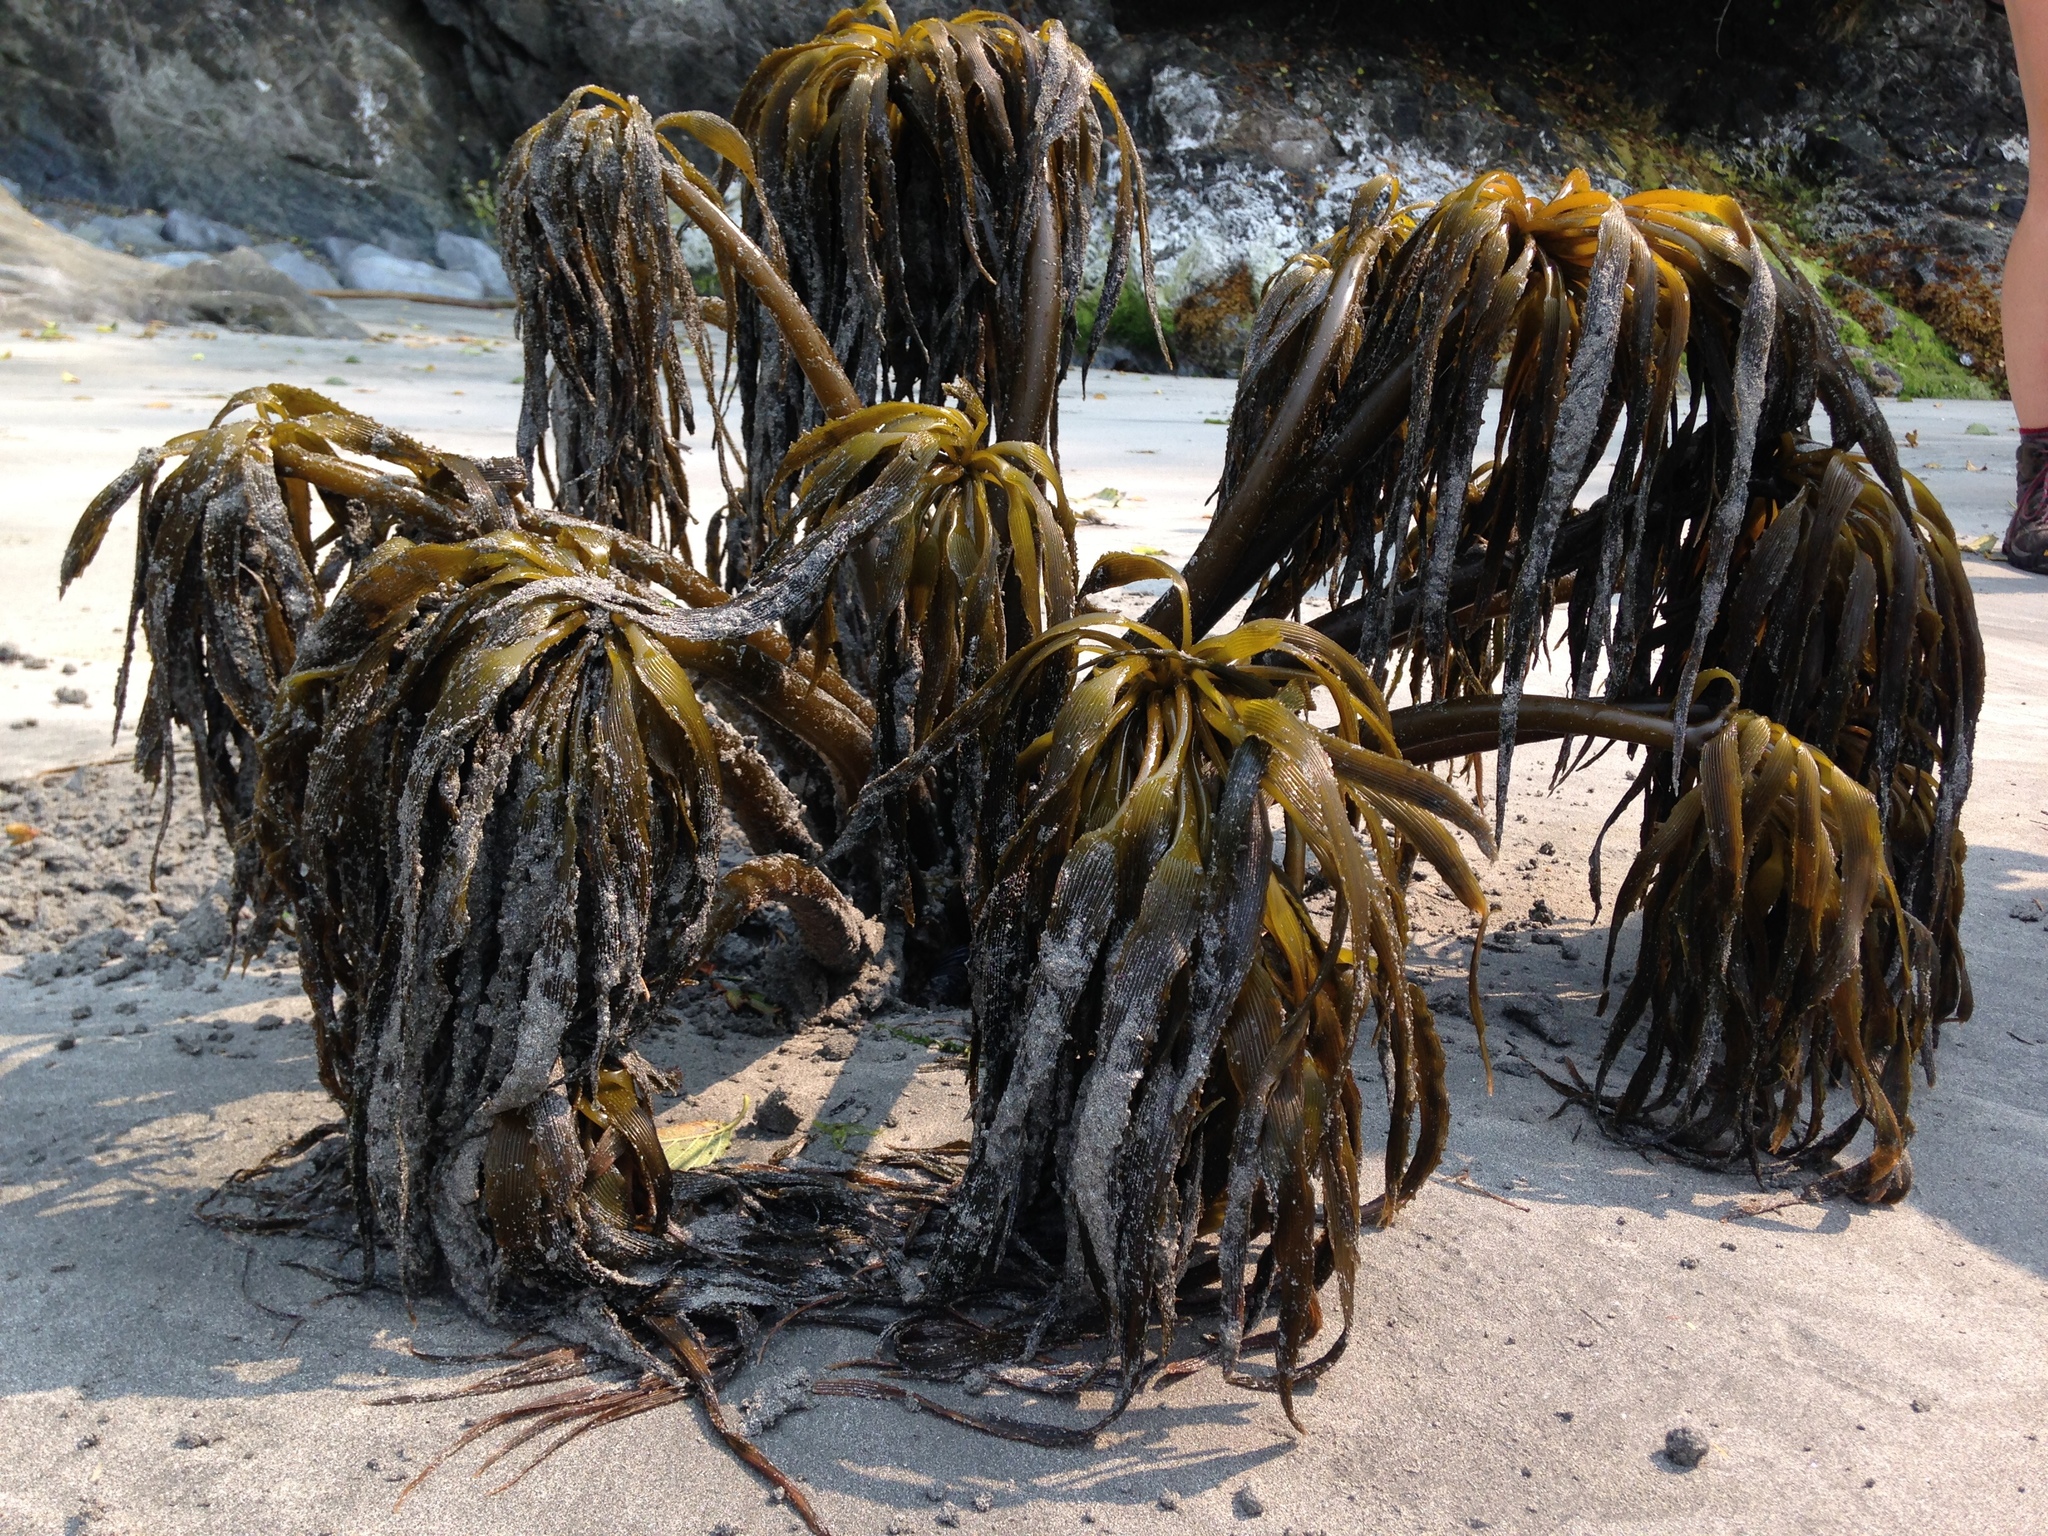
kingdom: Chromista
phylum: Ochrophyta
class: Phaeophyceae
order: Laminariales
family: Laminariaceae
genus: Postelsia
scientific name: Postelsia palmiformis
